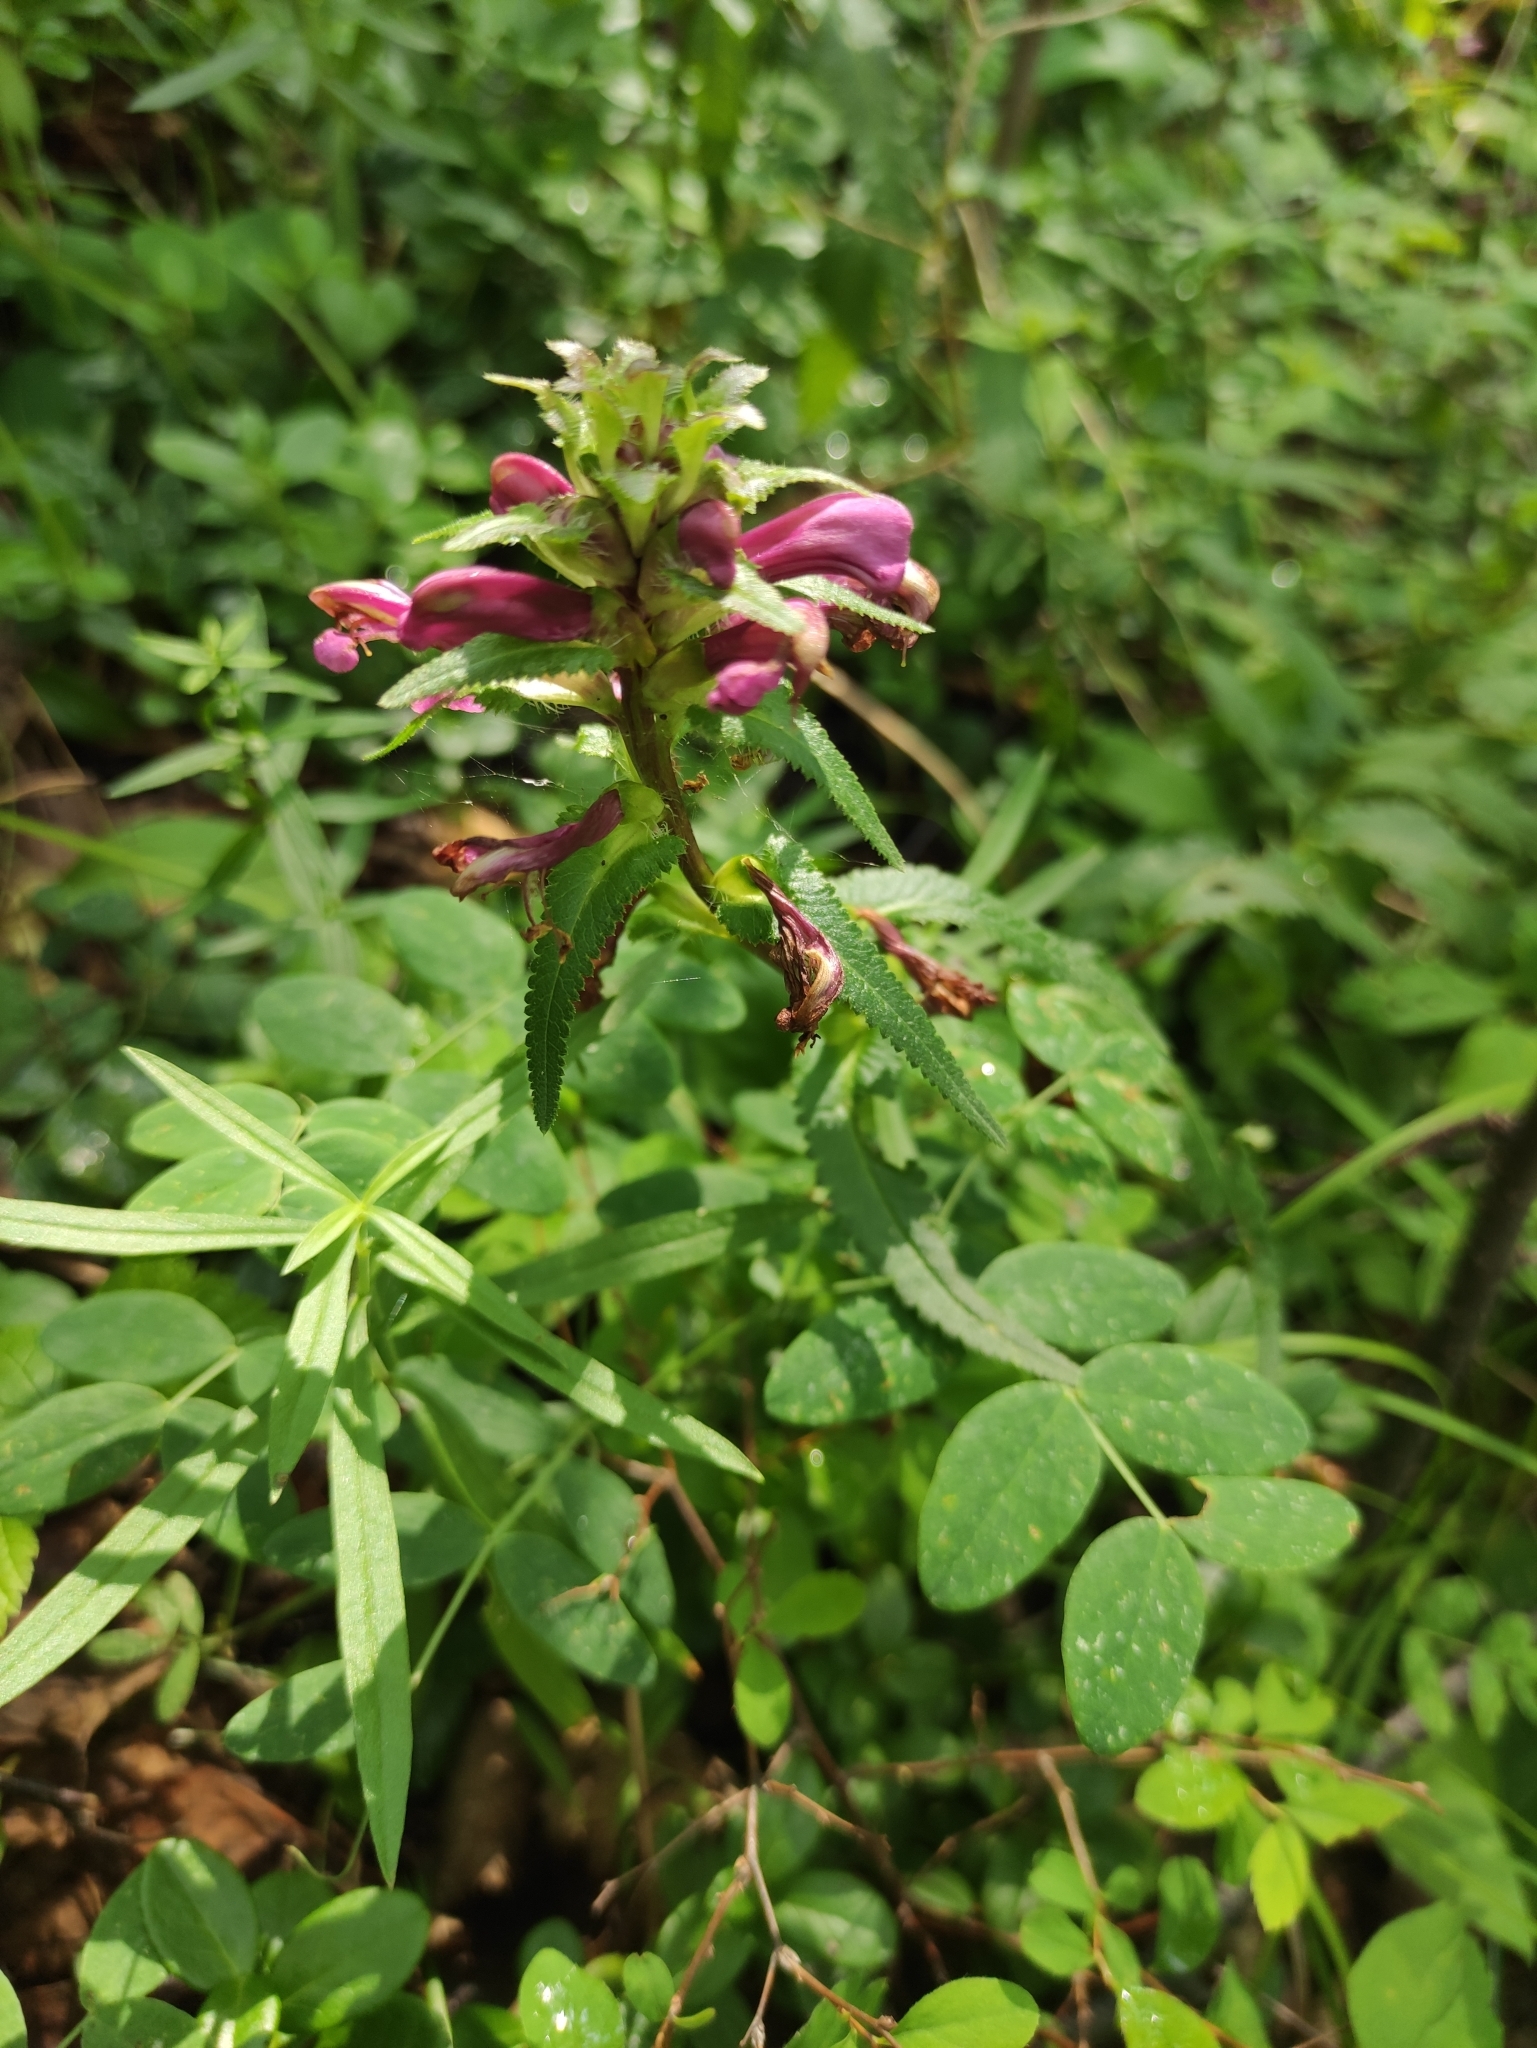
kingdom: Plantae
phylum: Tracheophyta
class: Magnoliopsida
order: Lamiales
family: Orobanchaceae
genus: Pedicularis
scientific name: Pedicularis resupinata
